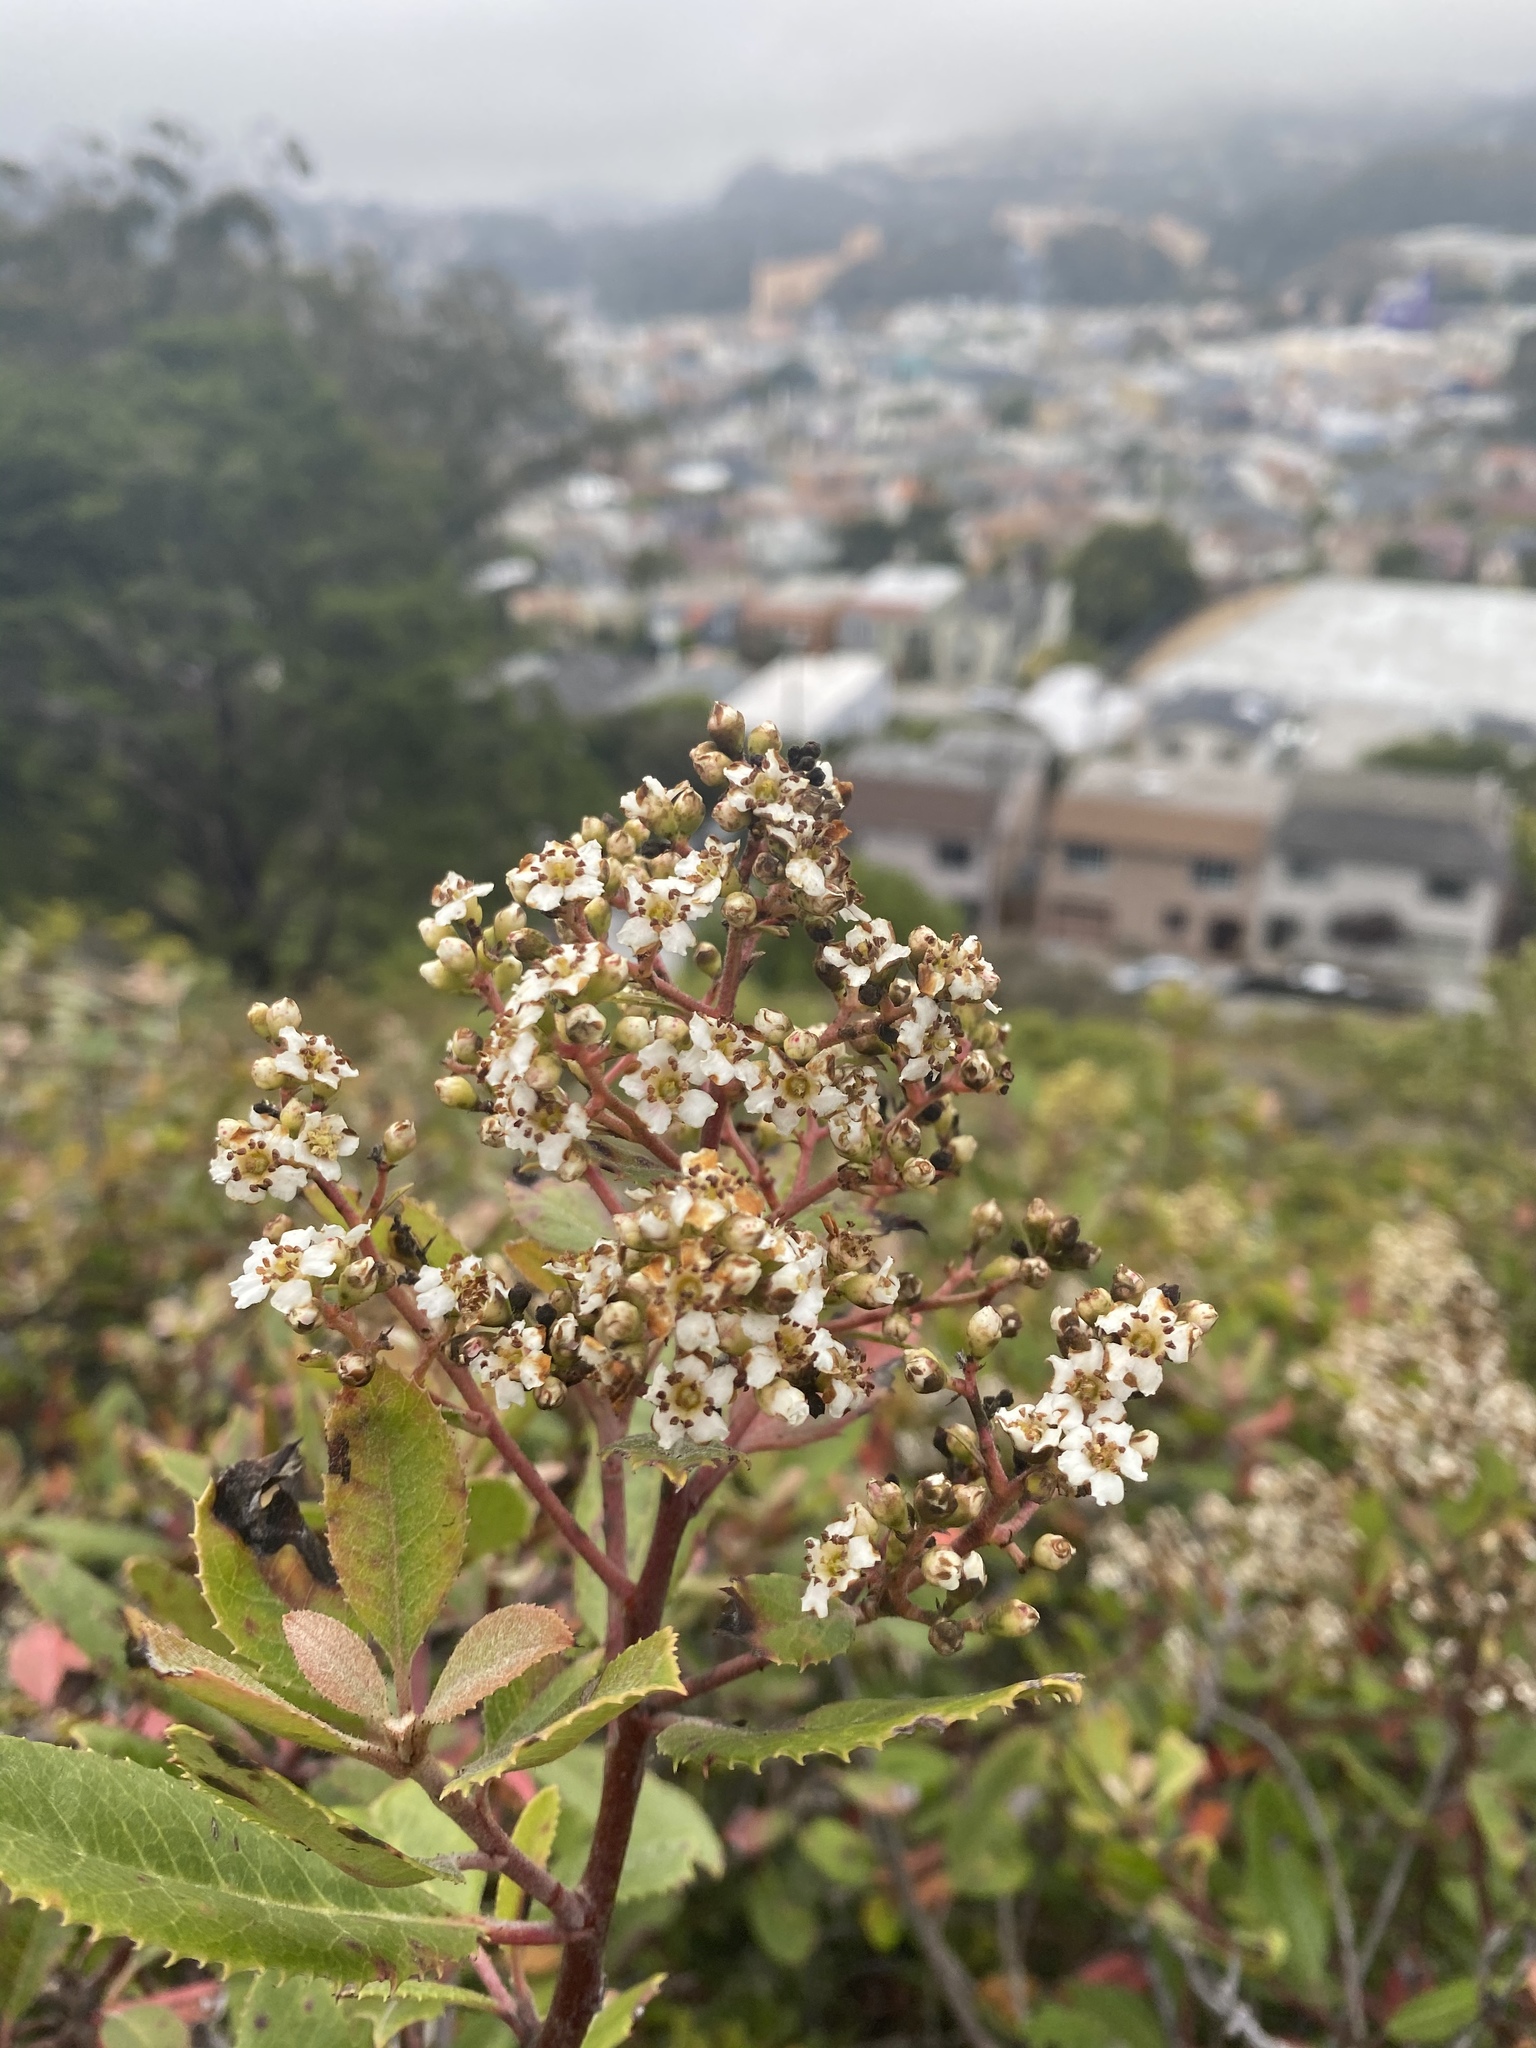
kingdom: Plantae
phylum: Tracheophyta
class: Magnoliopsida
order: Rosales
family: Rosaceae
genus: Heteromeles
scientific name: Heteromeles arbutifolia
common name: California-holly
